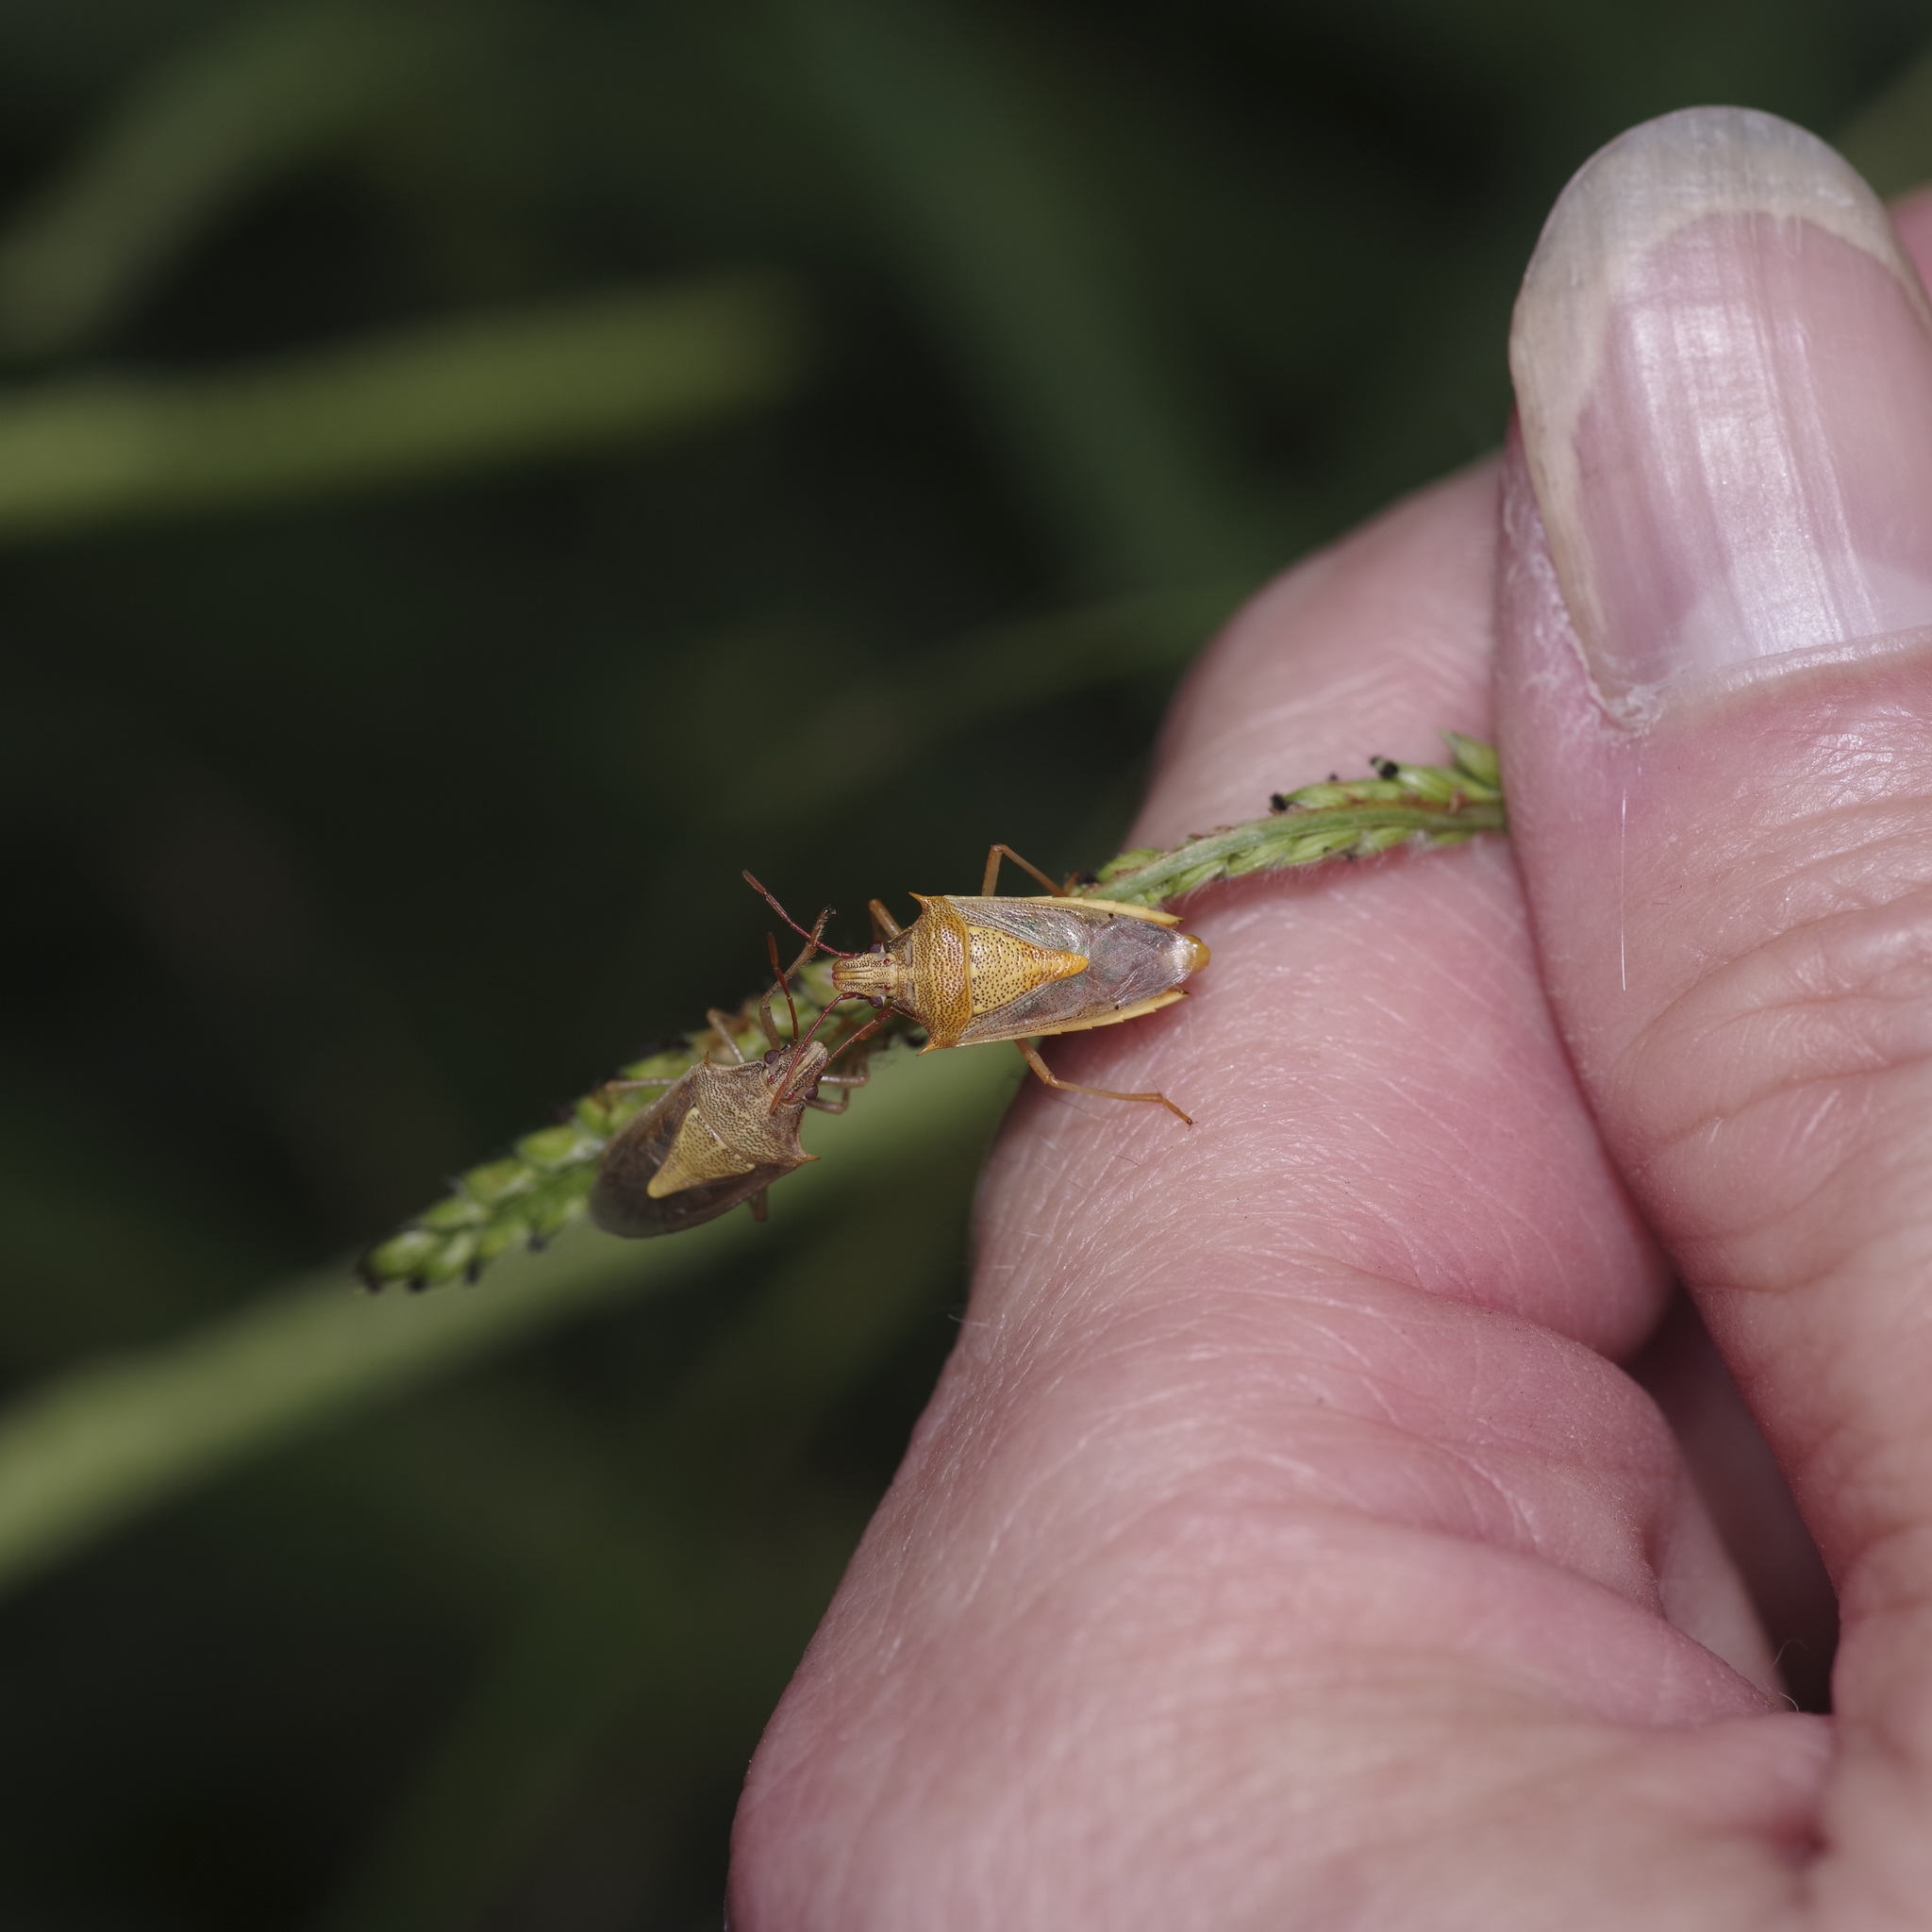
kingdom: Animalia
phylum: Arthropoda
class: Insecta
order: Hemiptera
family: Pentatomidae
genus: Oebalus
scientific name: Oebalus pugnax
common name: Rice stink bug
